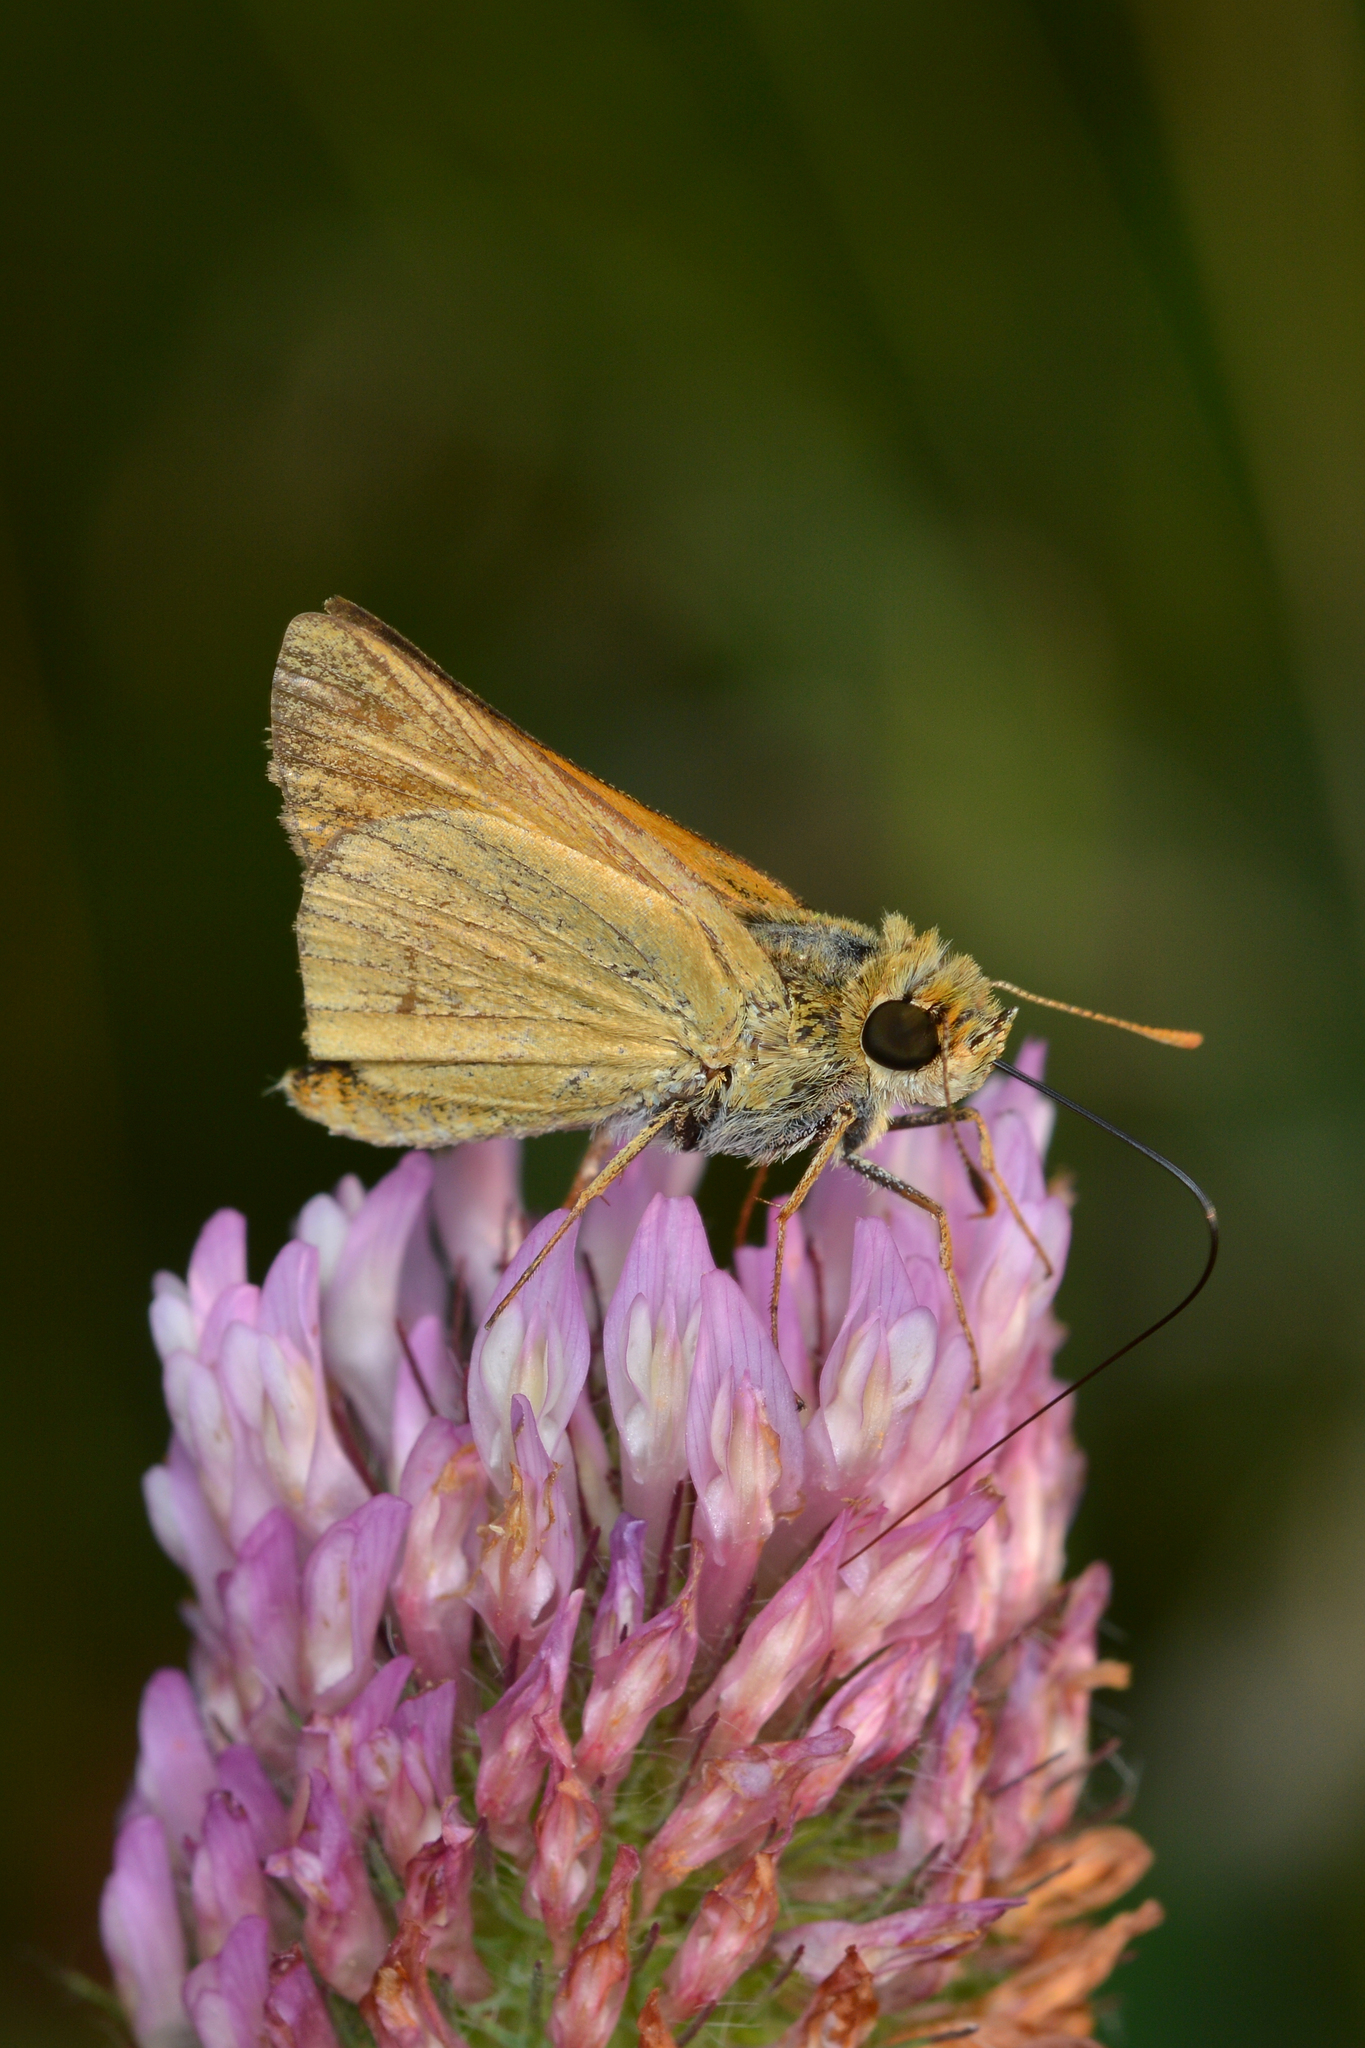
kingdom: Animalia
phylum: Arthropoda
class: Insecta
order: Lepidoptera
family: Hesperiidae
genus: Atrytone
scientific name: Atrytone delaware
